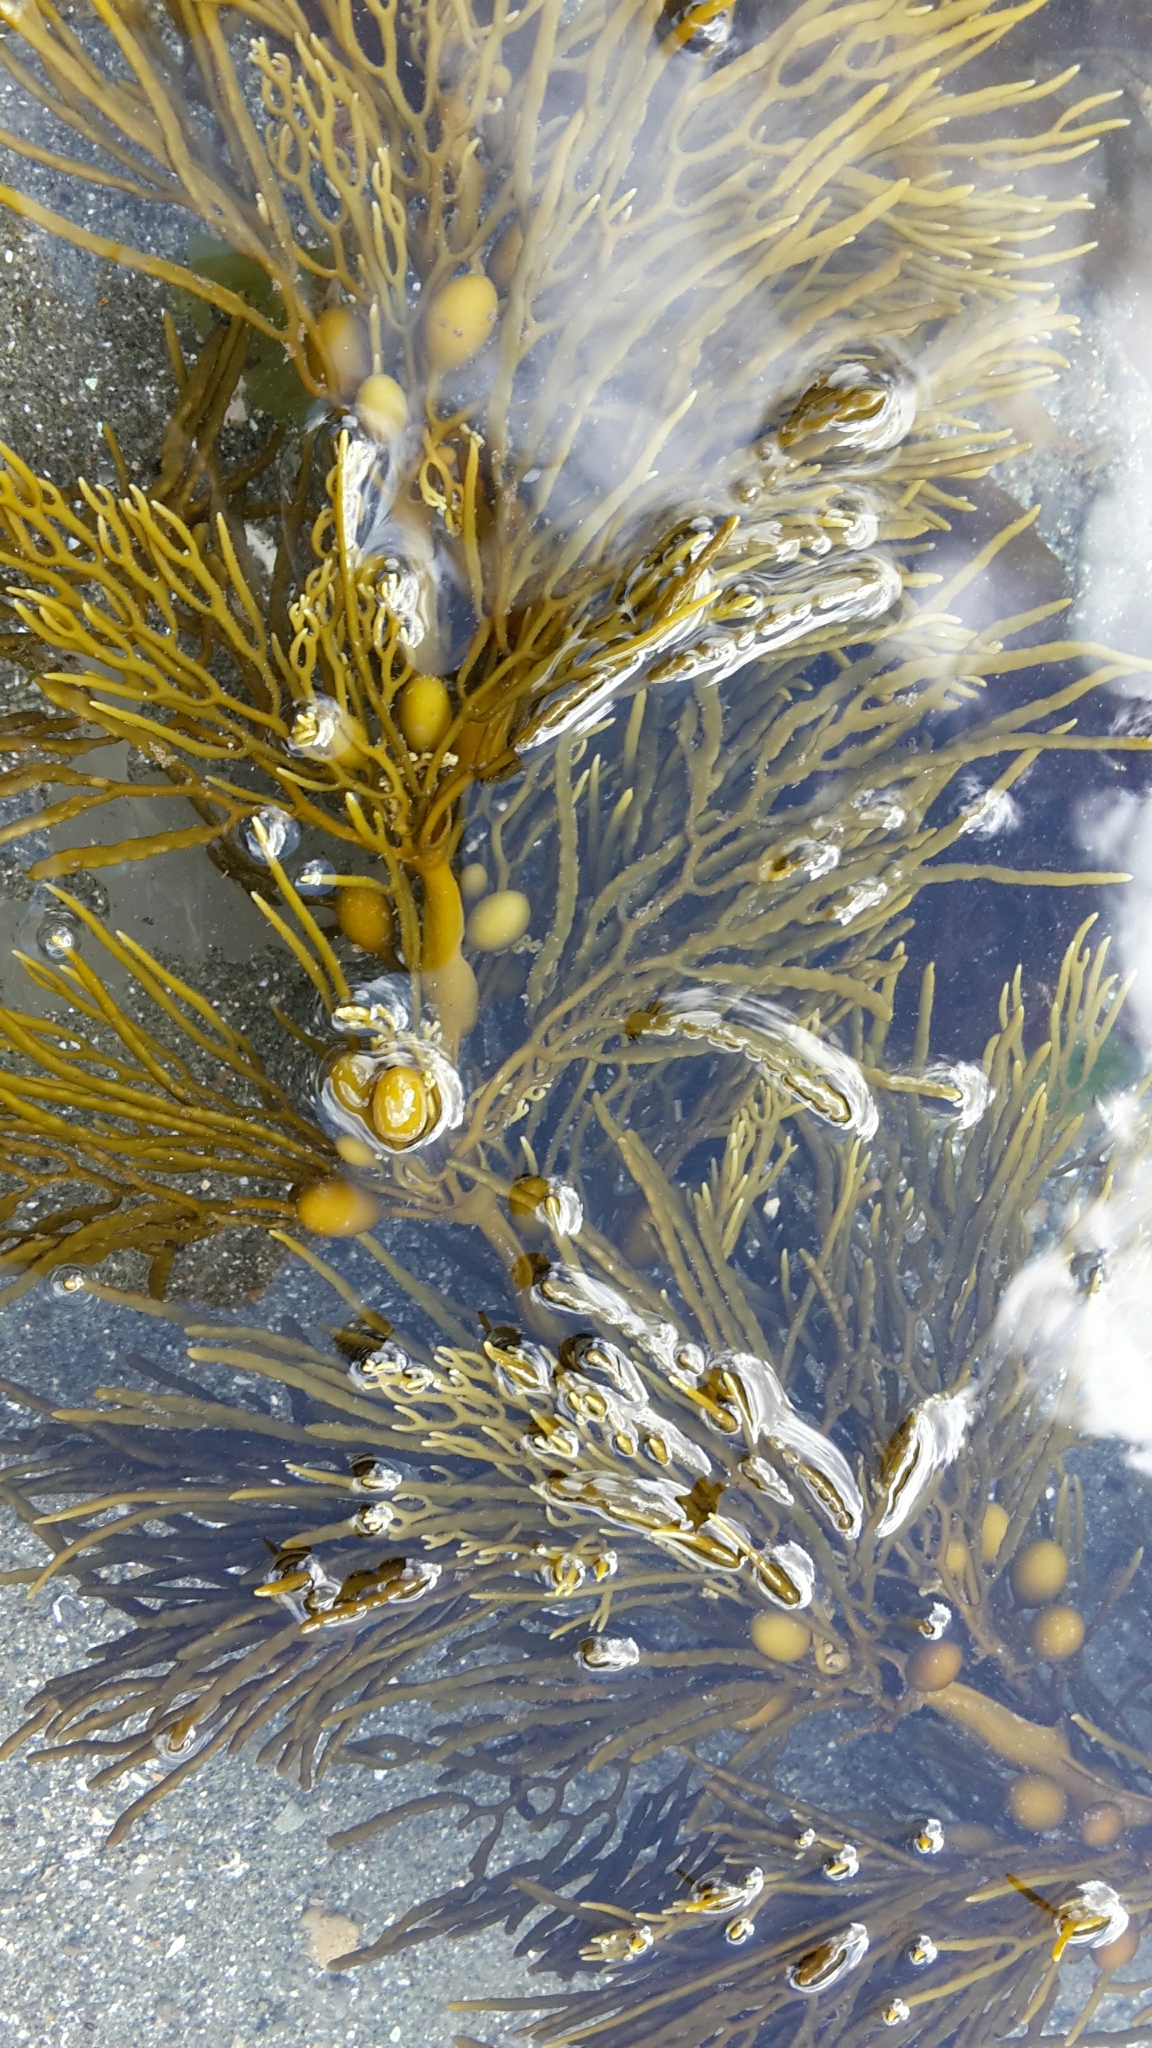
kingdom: Chromista
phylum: Ochrophyta
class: Phaeophyceae
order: Fucales
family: Sargassaceae
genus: Cystophora
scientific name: Cystophora retroflexa
